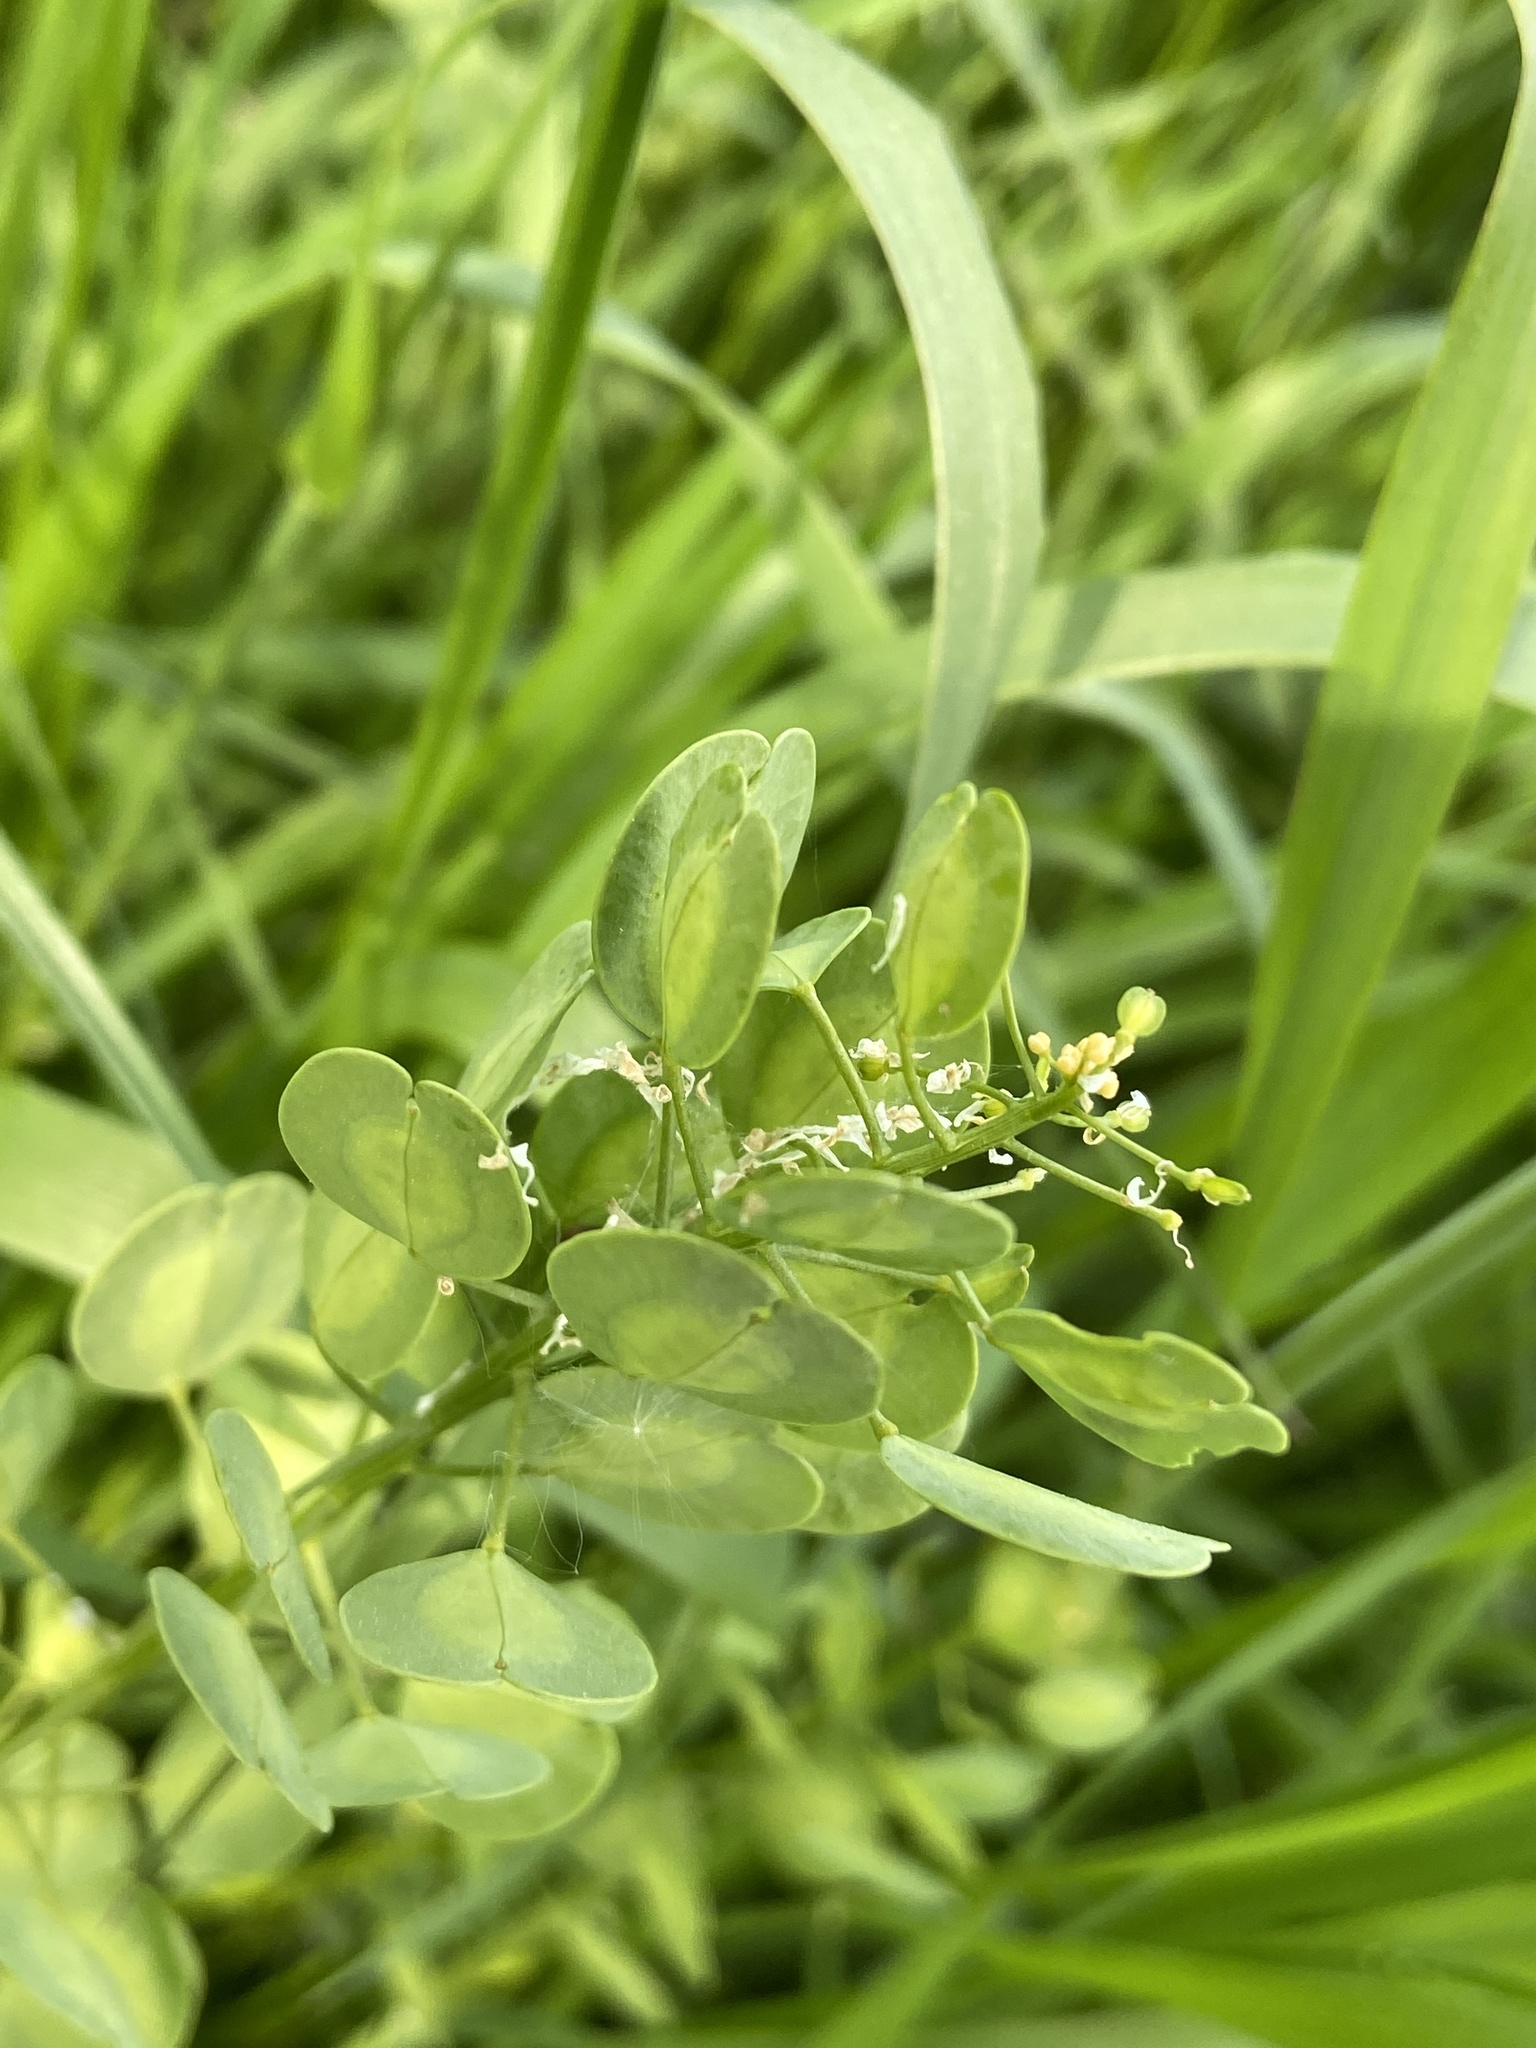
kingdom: Plantae
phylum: Tracheophyta
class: Magnoliopsida
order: Brassicales
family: Brassicaceae
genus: Thlaspi
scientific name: Thlaspi arvense
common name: Field pennycress
